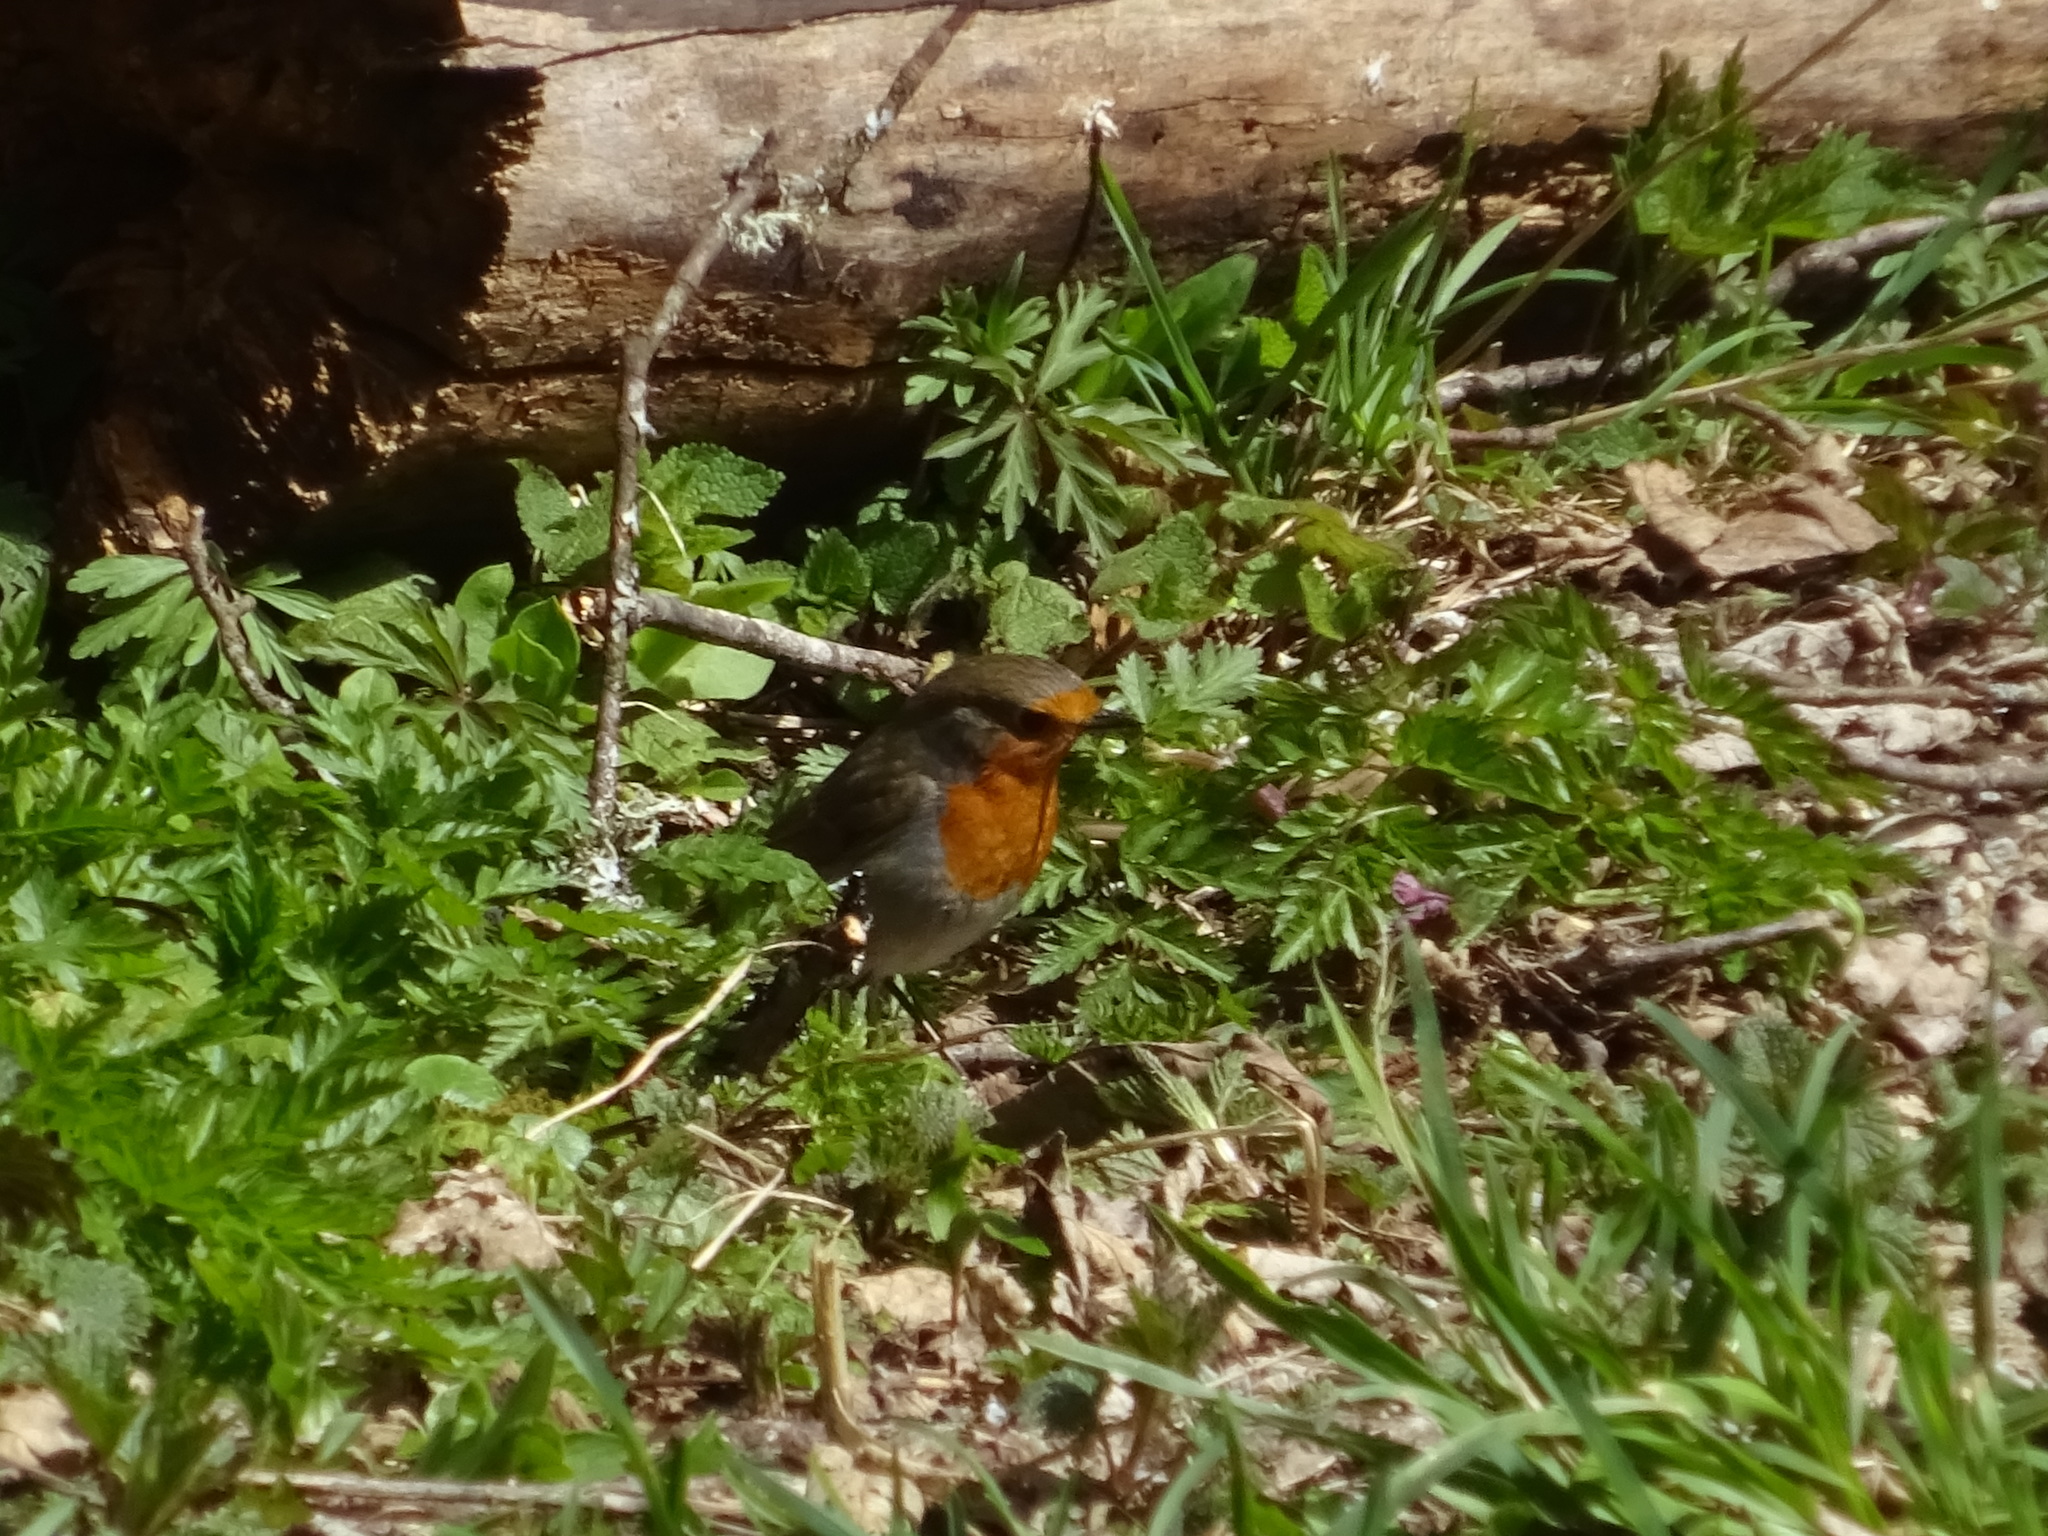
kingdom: Animalia
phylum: Chordata
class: Aves
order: Passeriformes
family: Muscicapidae
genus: Erithacus
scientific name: Erithacus rubecula
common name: European robin
